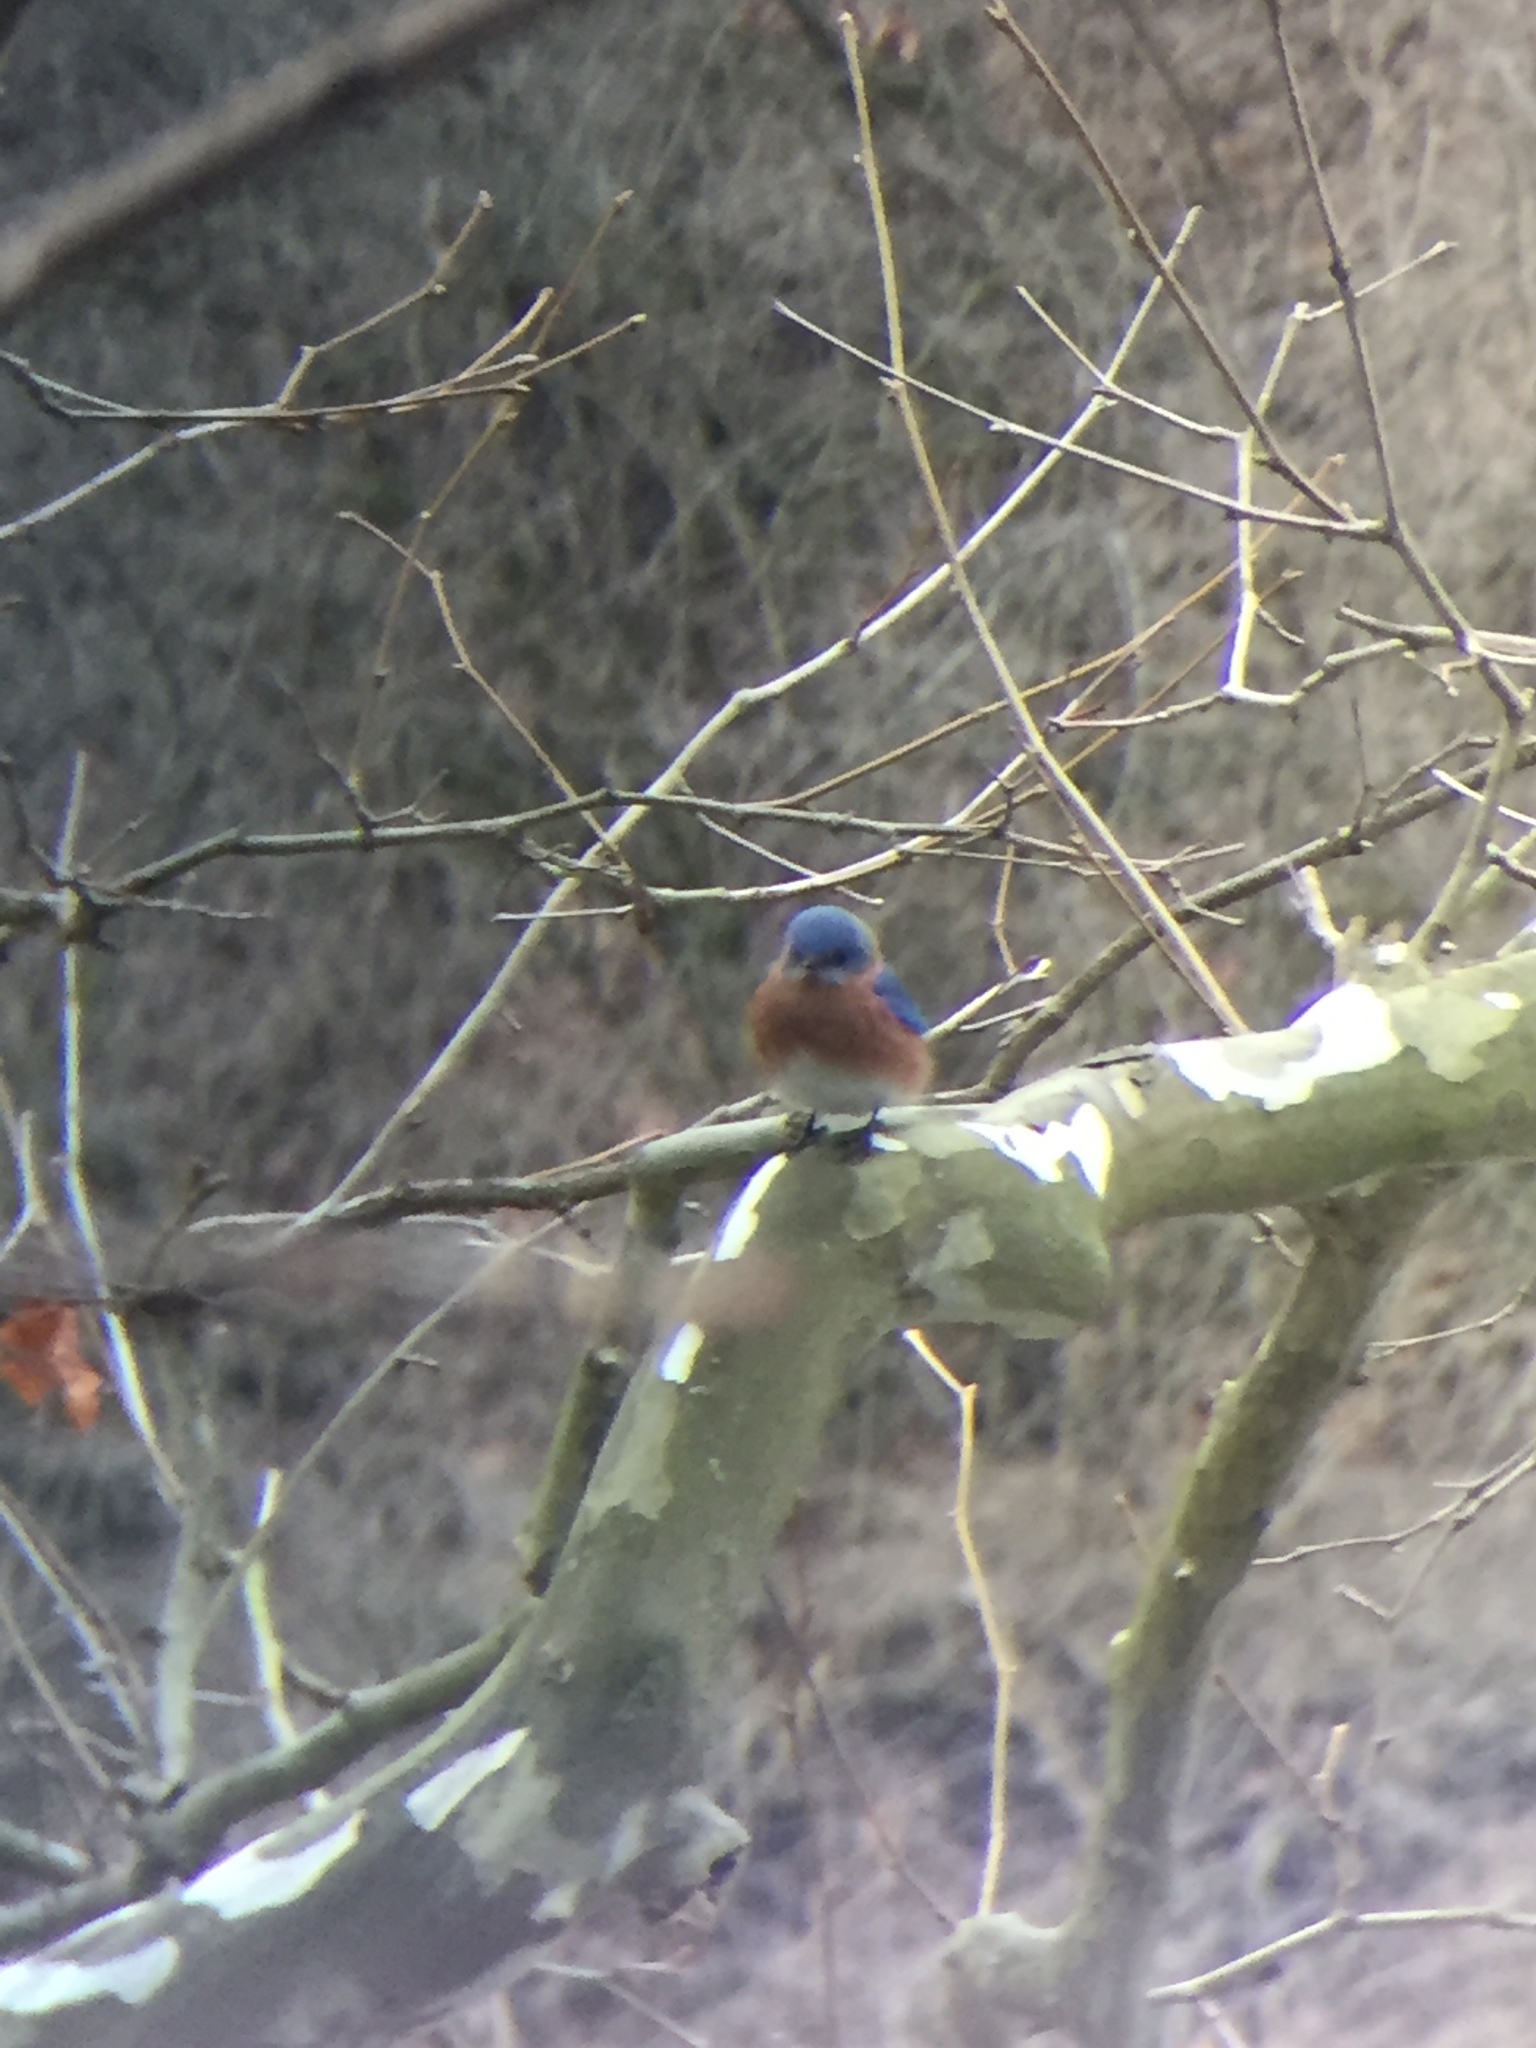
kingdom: Animalia
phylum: Chordata
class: Aves
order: Passeriformes
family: Turdidae
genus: Sialia
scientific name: Sialia sialis
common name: Eastern bluebird
